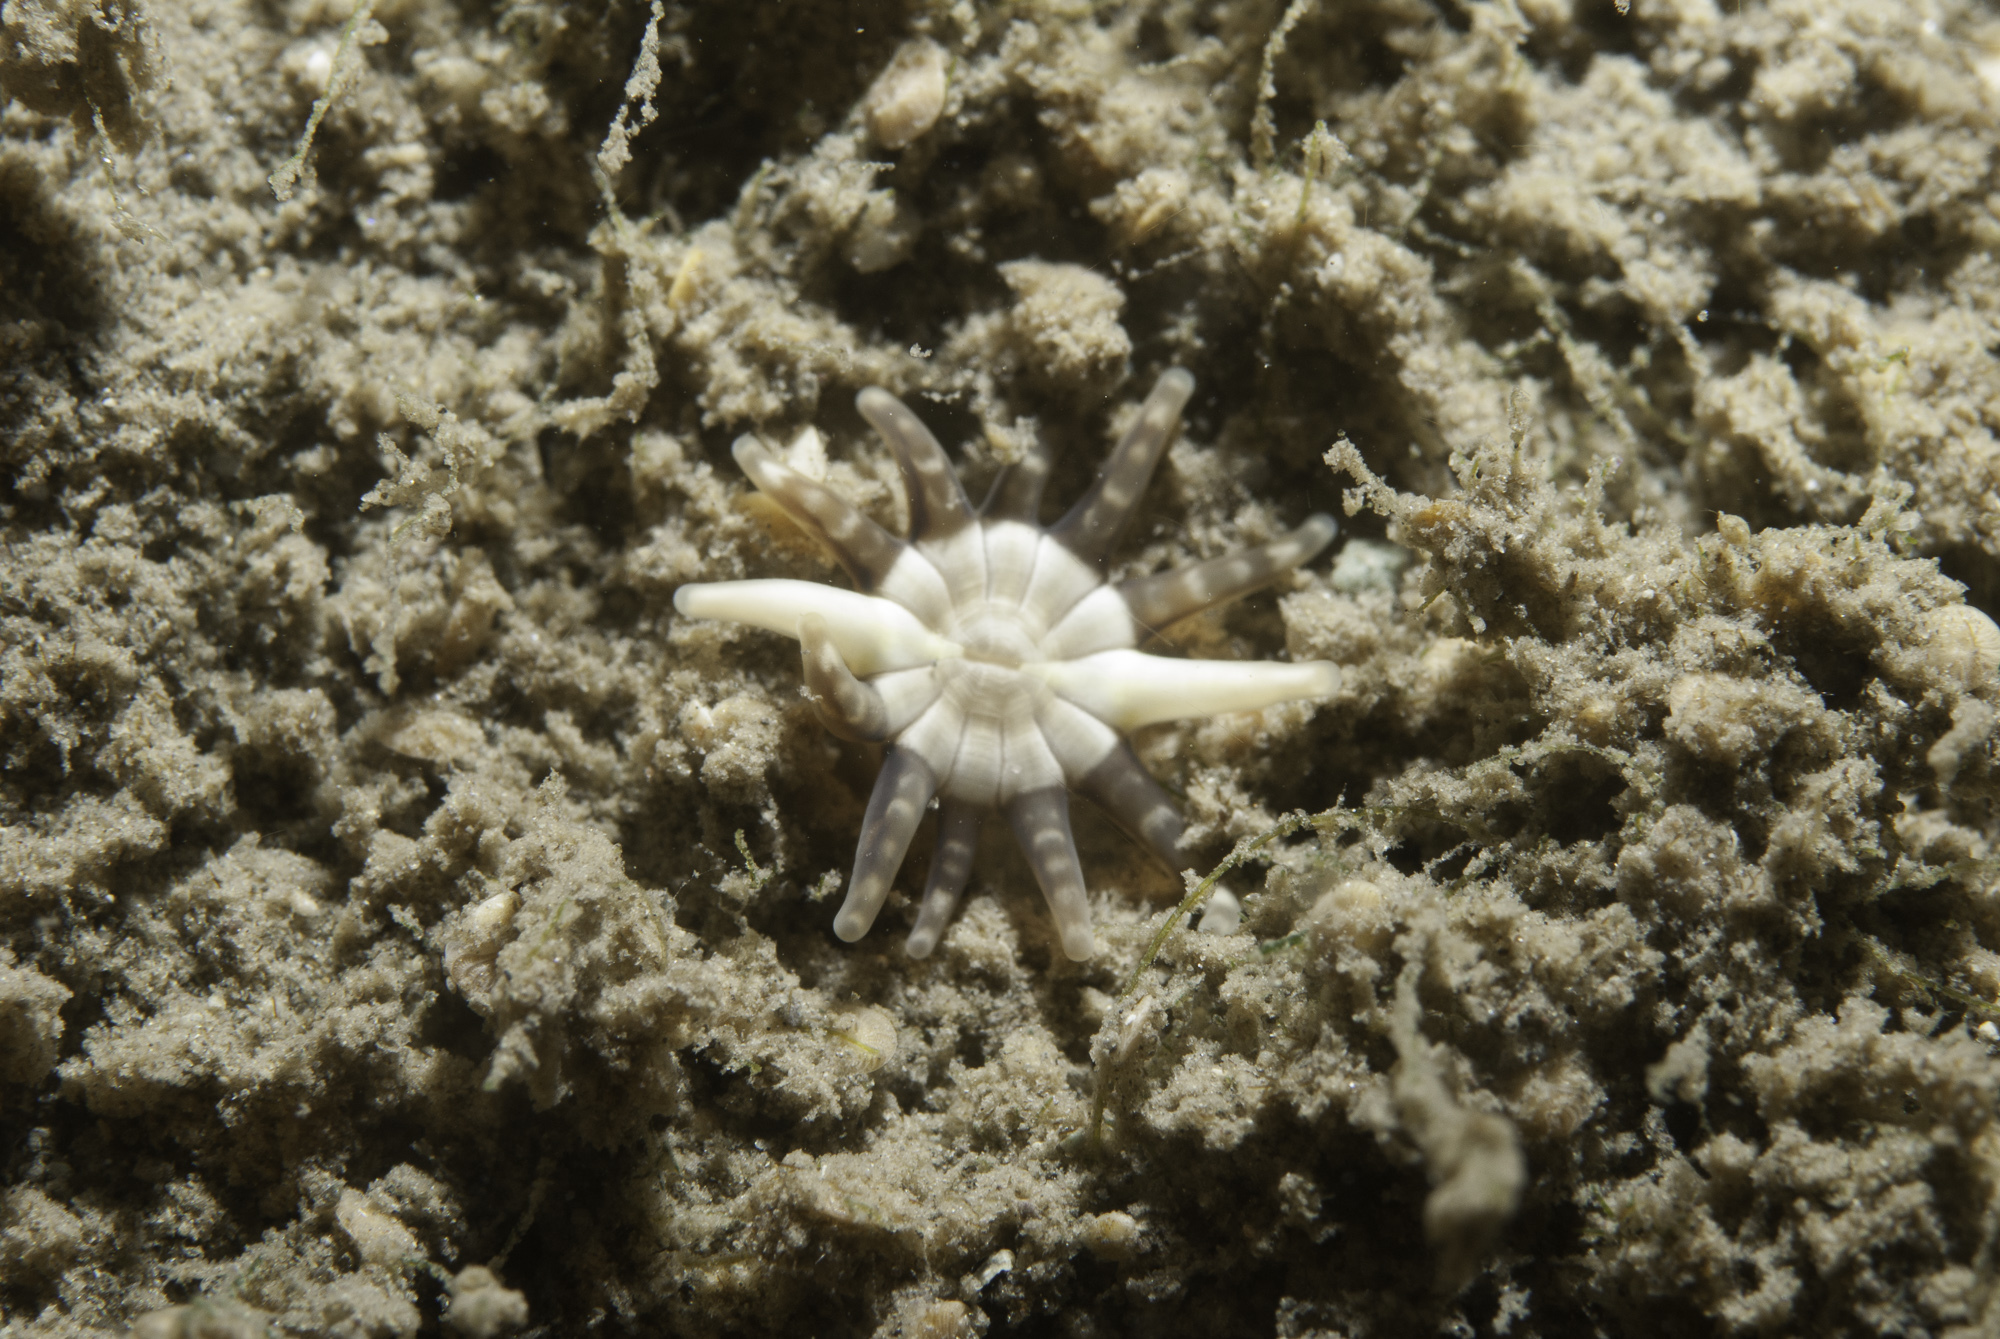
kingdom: Animalia
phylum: Cnidaria
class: Anthozoa
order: Actiniaria
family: Halcampidae
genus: Halcampa
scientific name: Halcampa chrysanthellum
